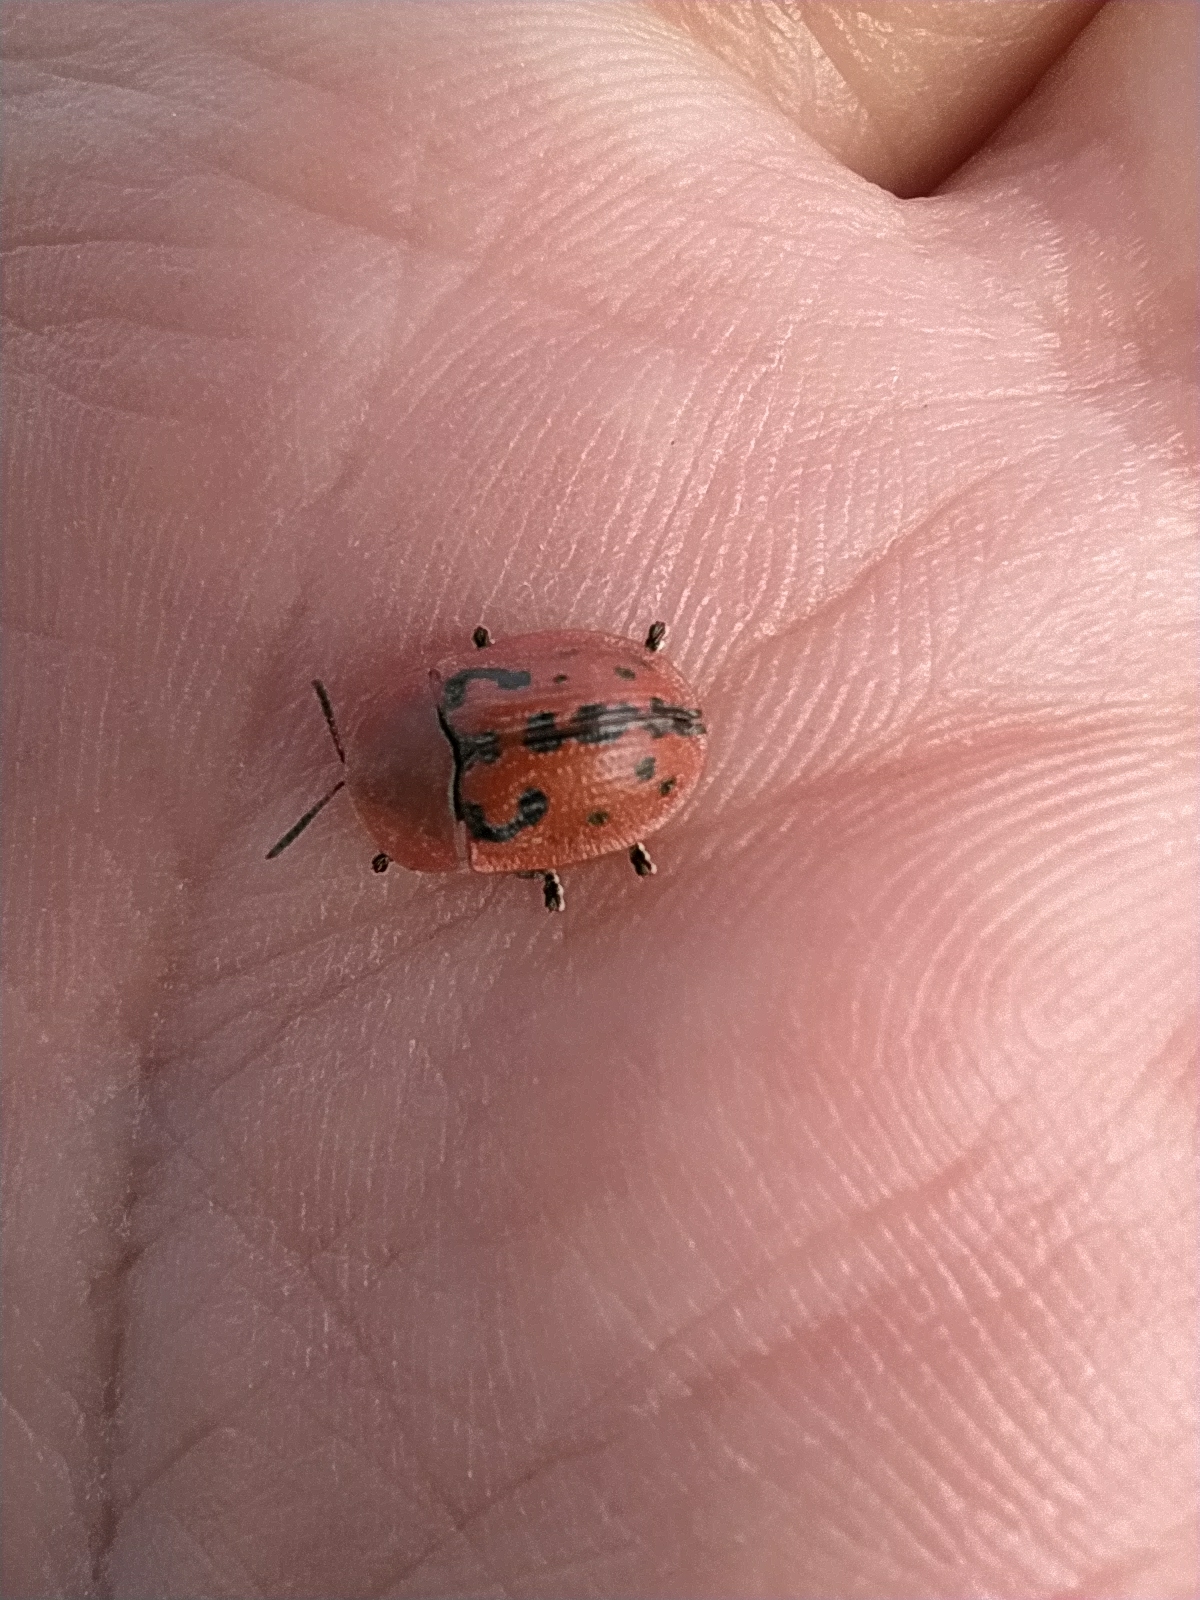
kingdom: Animalia
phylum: Arthropoda
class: Insecta
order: Coleoptera
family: Chrysomelidae
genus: Cassida
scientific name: Cassida murraea
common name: Fleabane tortoise beetle
